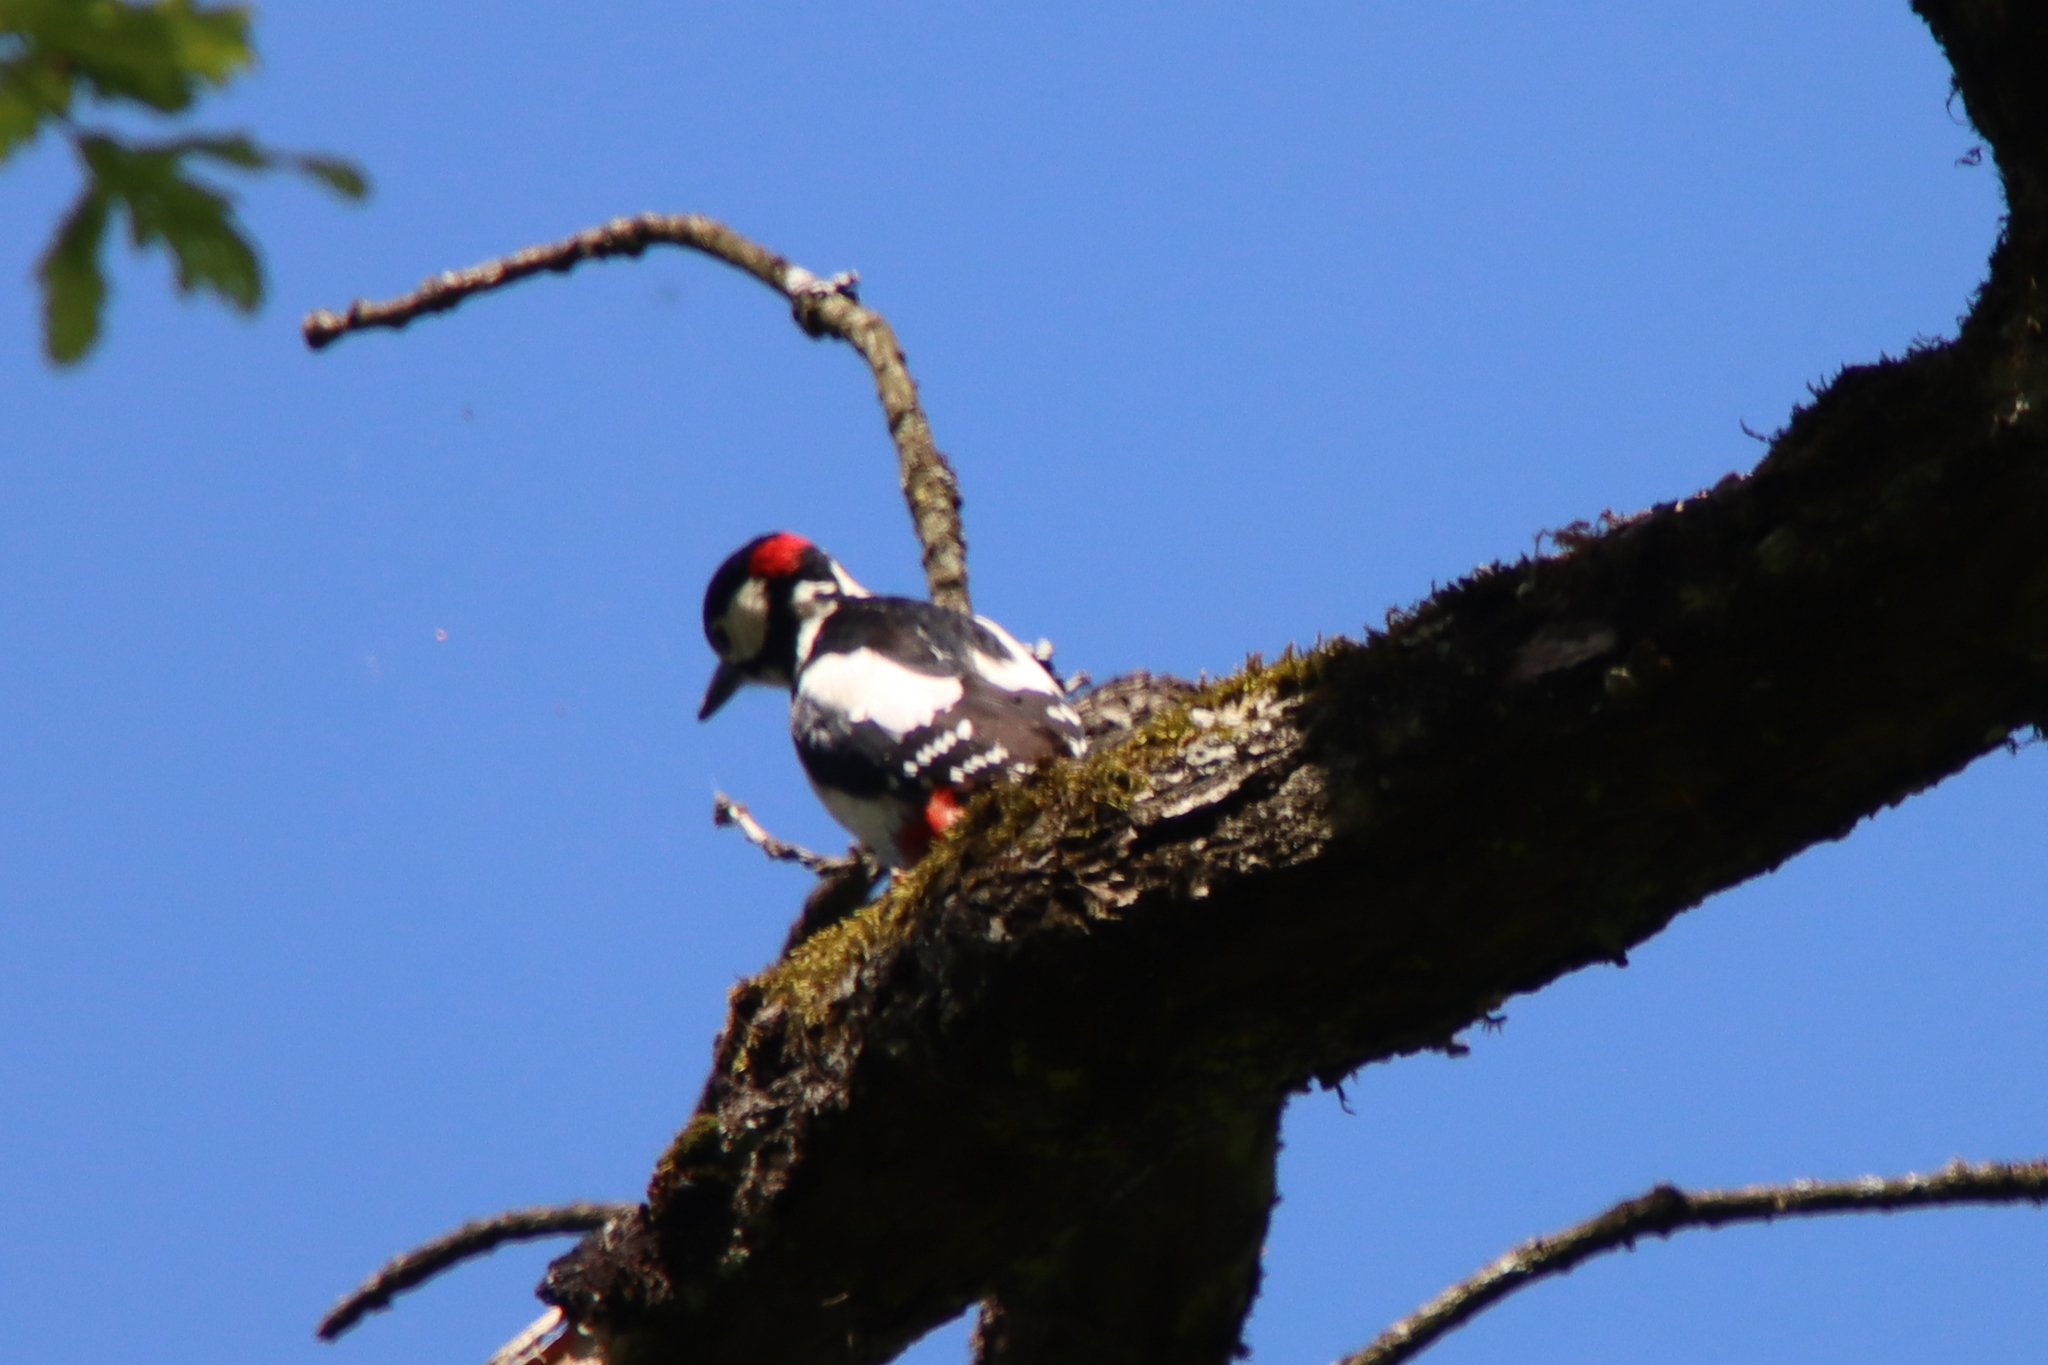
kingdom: Animalia
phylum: Chordata
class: Aves
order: Piciformes
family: Picidae
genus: Dendrocopos
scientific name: Dendrocopos major
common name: Great spotted woodpecker
